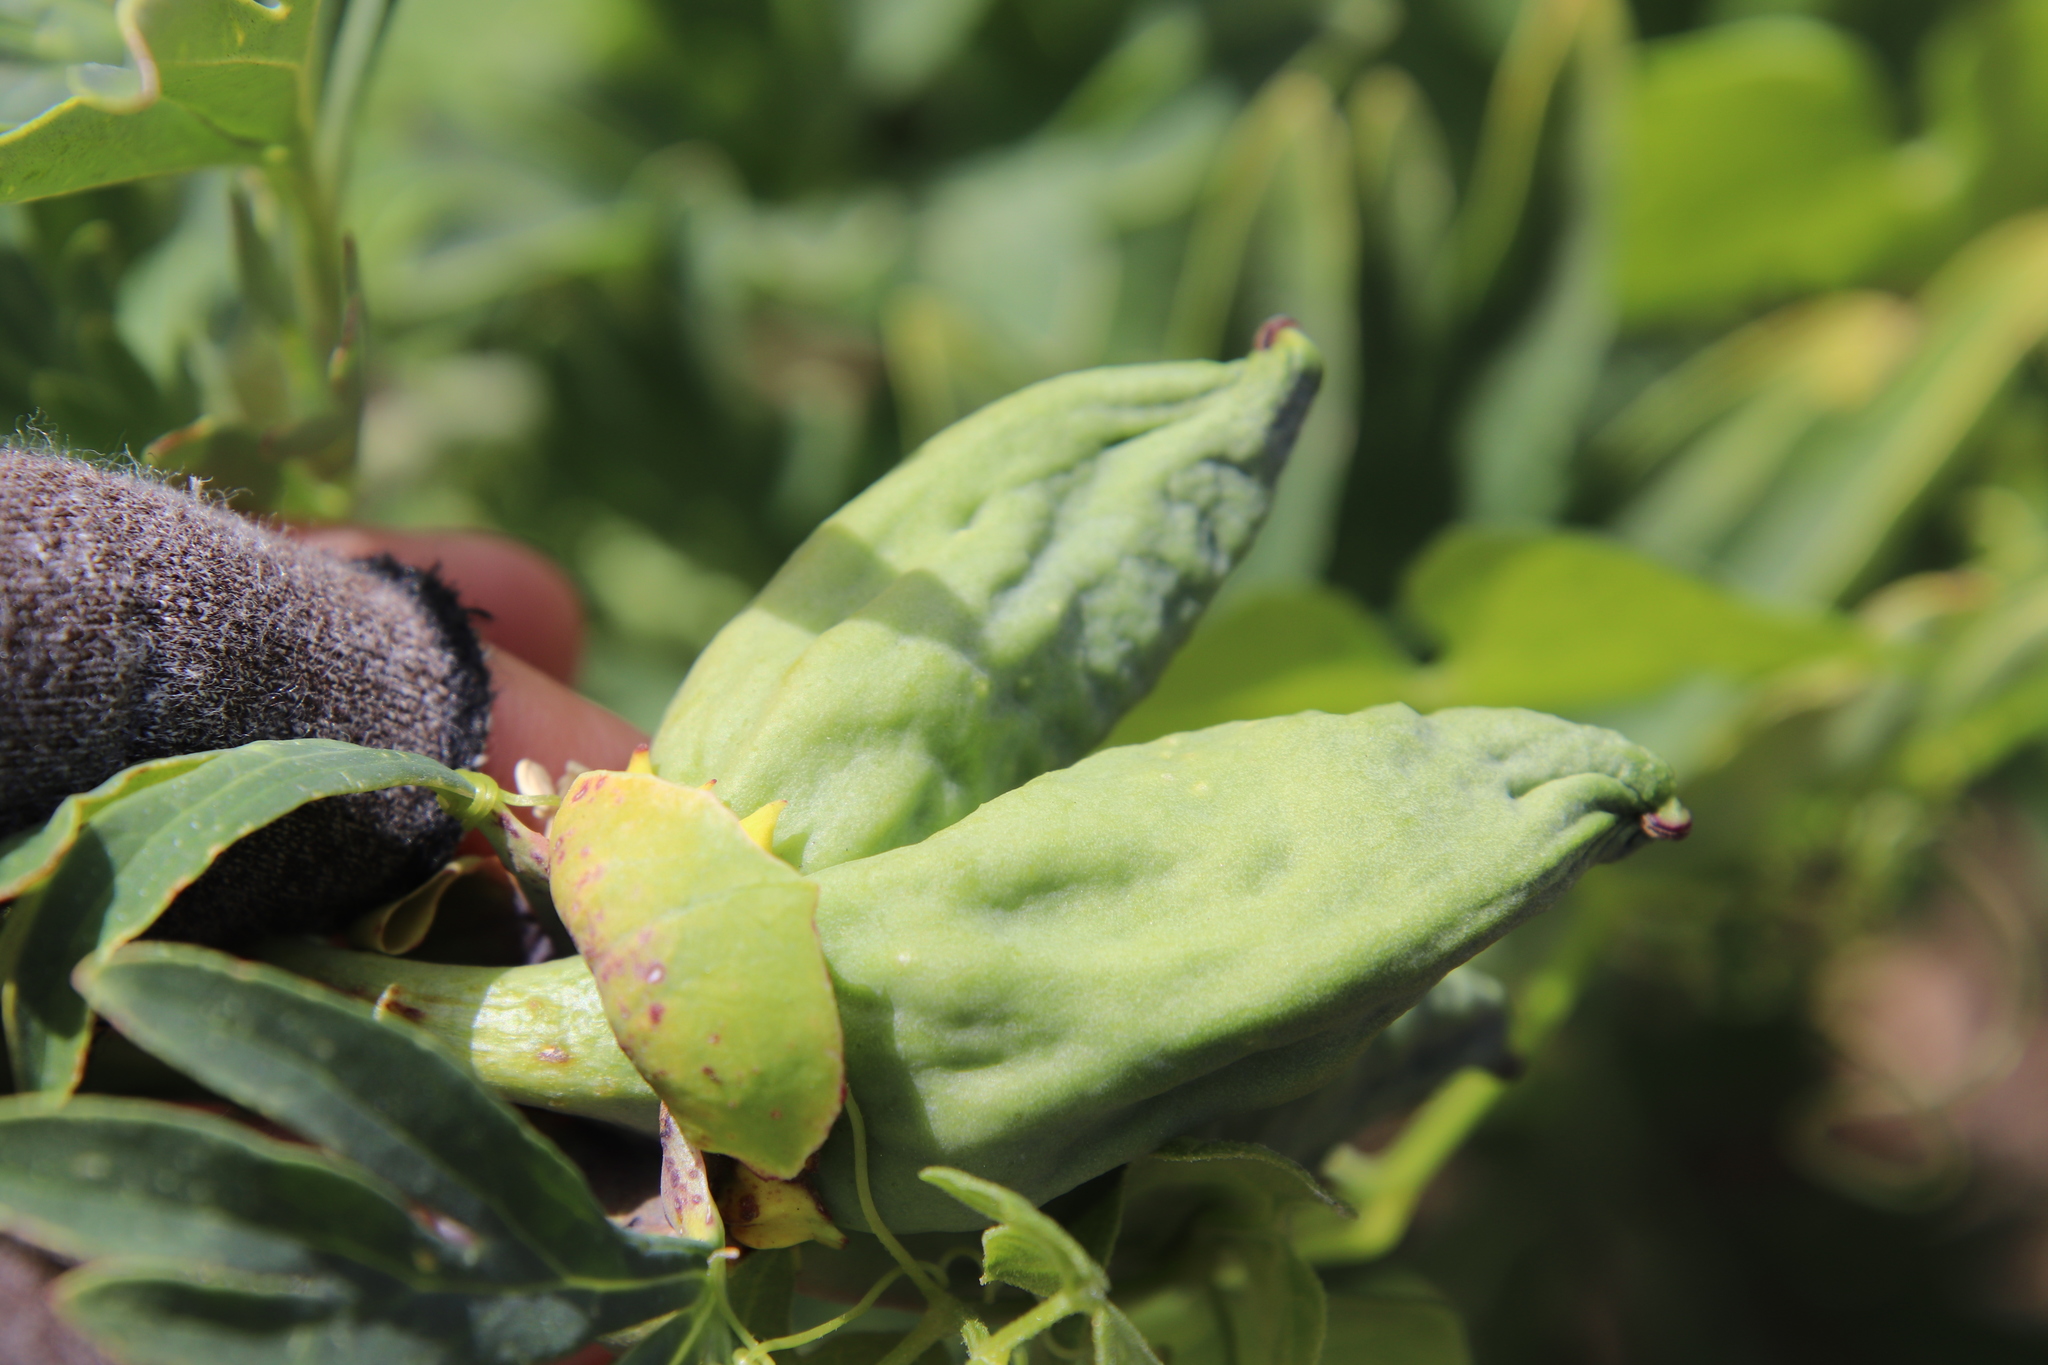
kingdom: Plantae
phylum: Tracheophyta
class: Magnoliopsida
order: Saxifragales
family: Paeoniaceae
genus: Paeonia
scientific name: Paeonia californica
